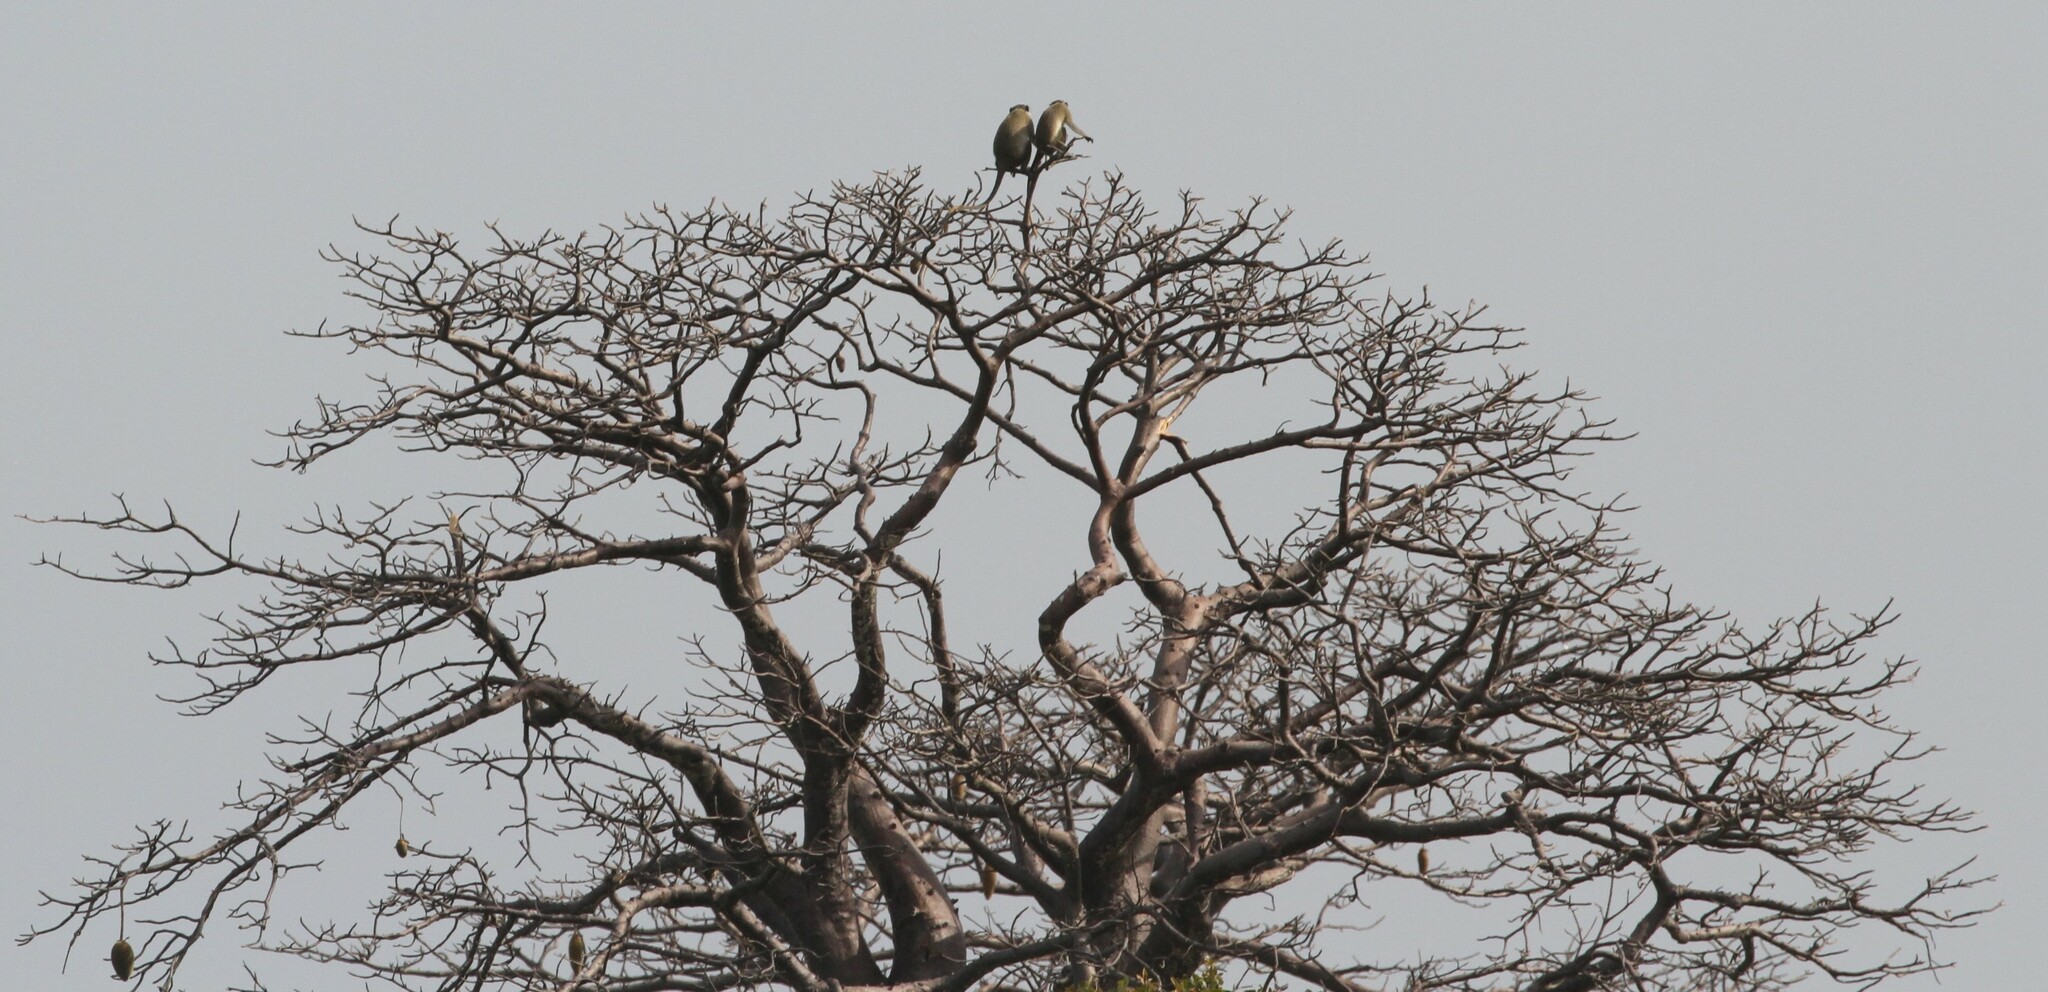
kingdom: Animalia
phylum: Chordata
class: Mammalia
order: Primates
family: Cercopithecidae
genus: Chlorocebus
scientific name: Chlorocebus sabaeus
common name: Green monkey
